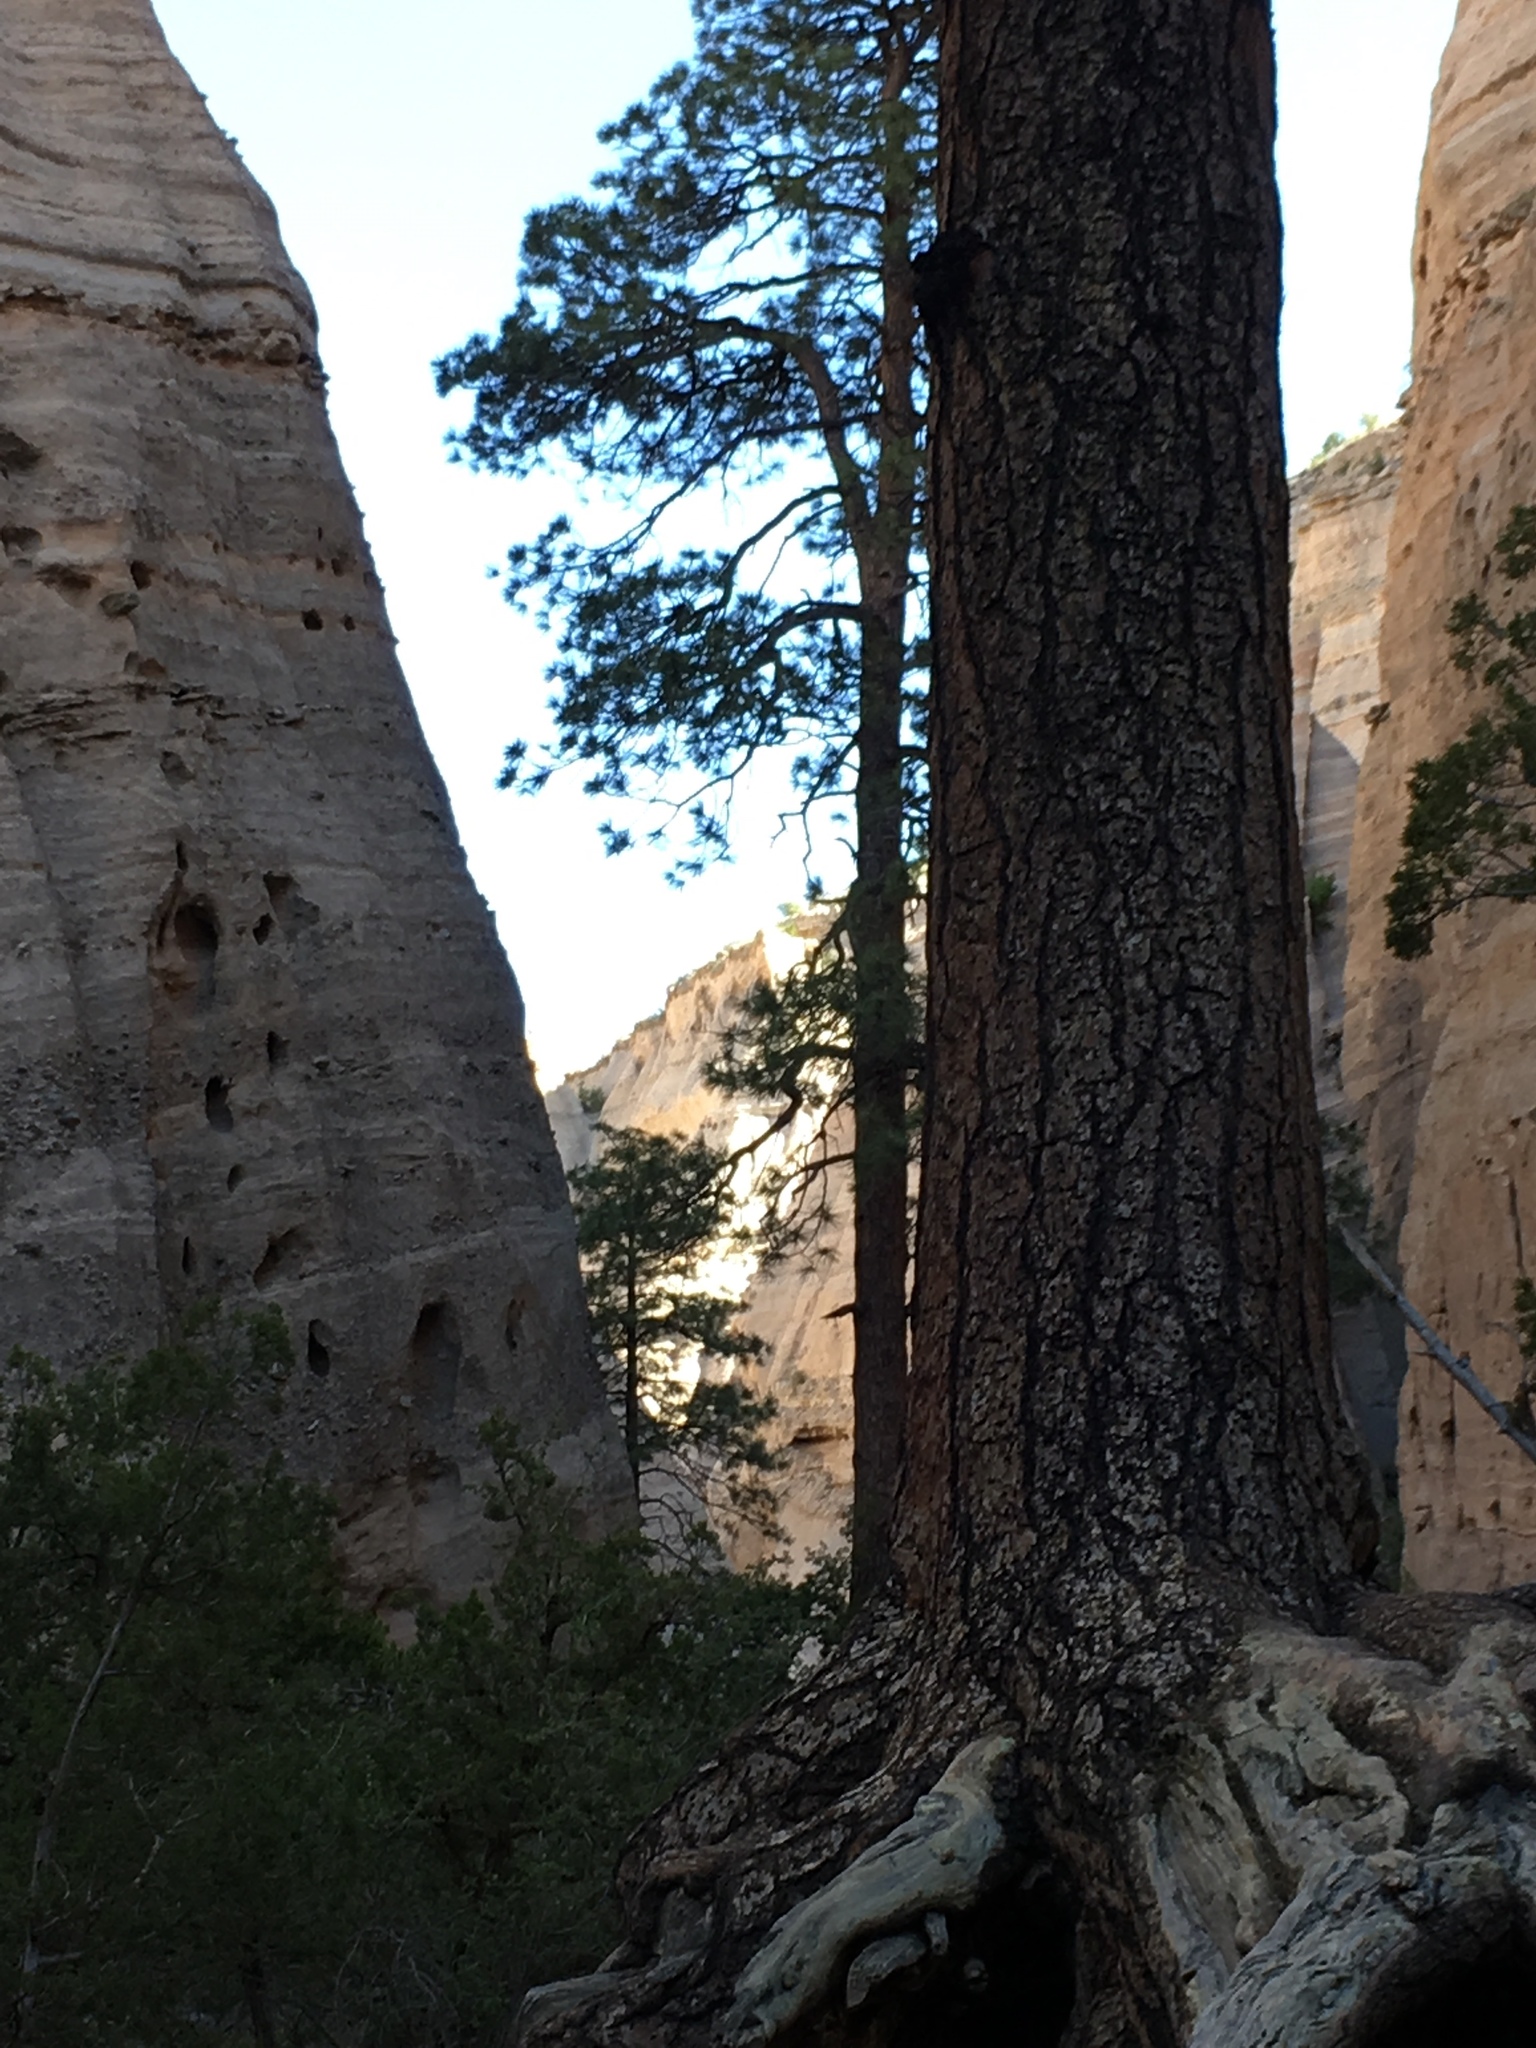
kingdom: Plantae
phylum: Tracheophyta
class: Pinopsida
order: Pinales
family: Pinaceae
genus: Pinus
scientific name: Pinus ponderosa
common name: Western yellow-pine
